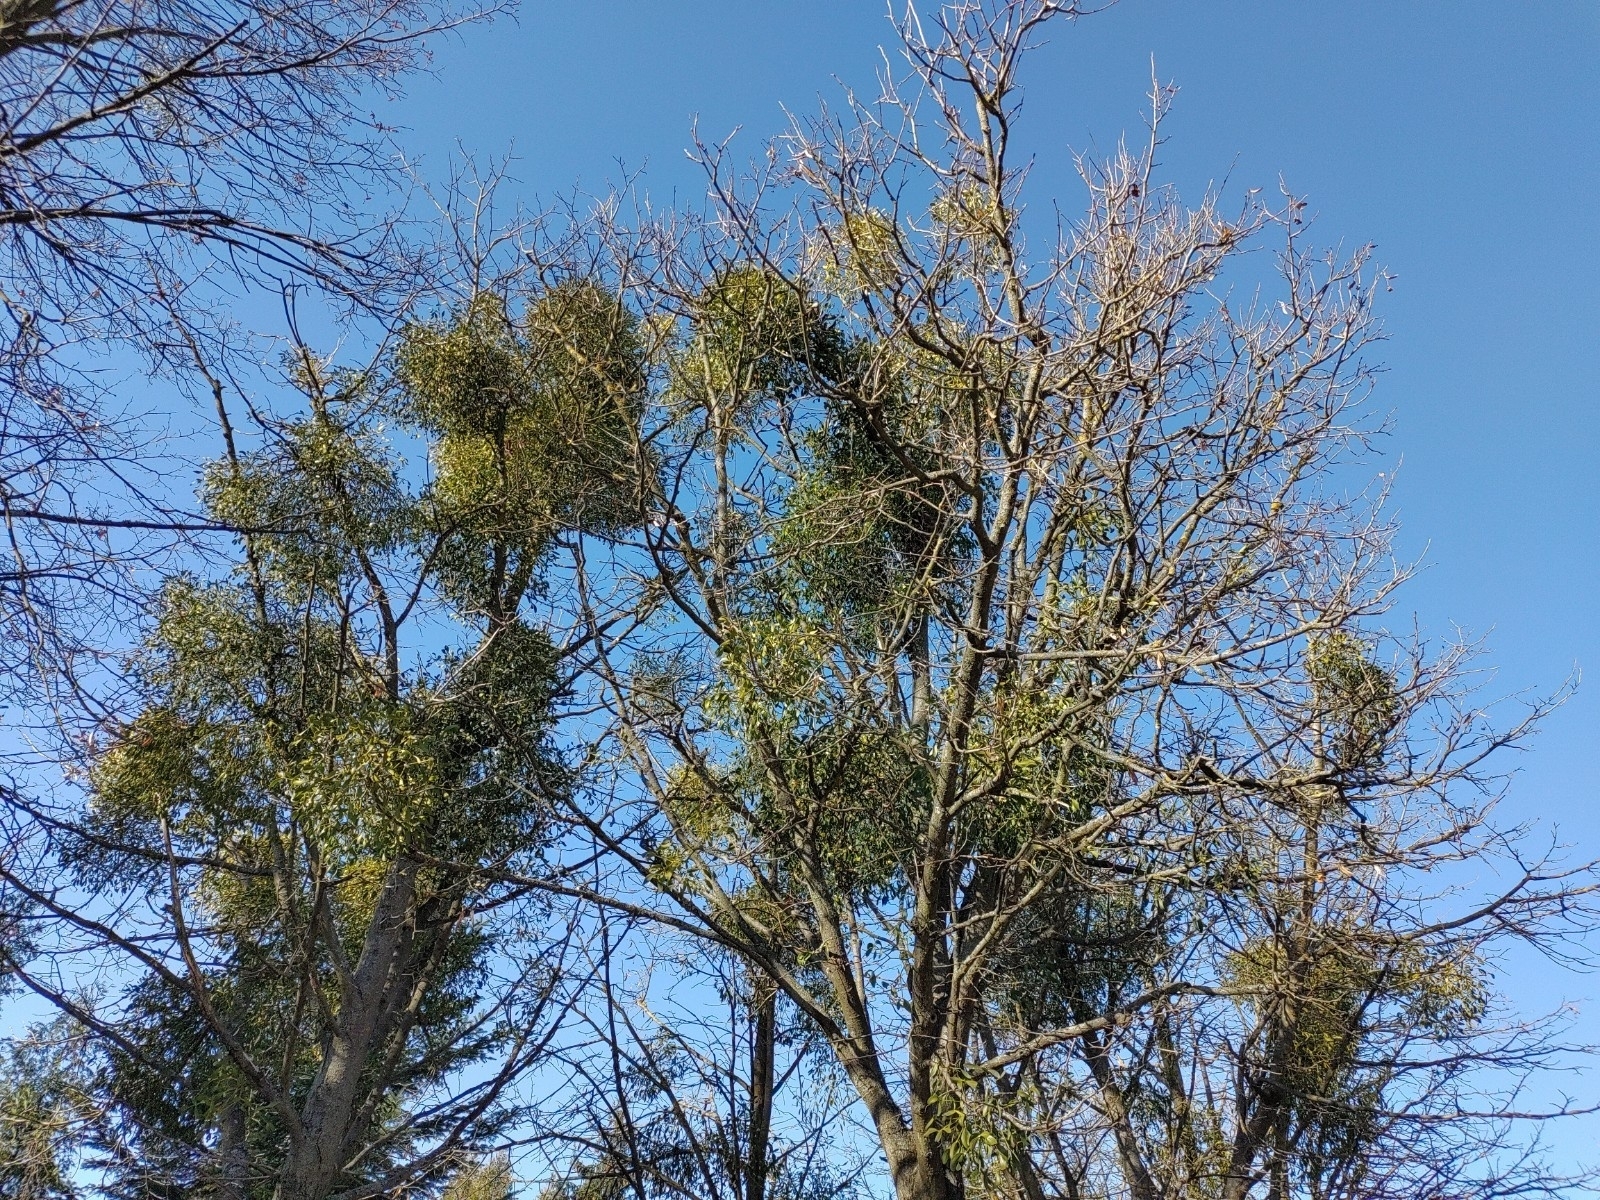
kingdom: Plantae
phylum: Tracheophyta
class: Magnoliopsida
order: Santalales
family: Viscaceae
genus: Viscum
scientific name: Viscum album
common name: Mistletoe
